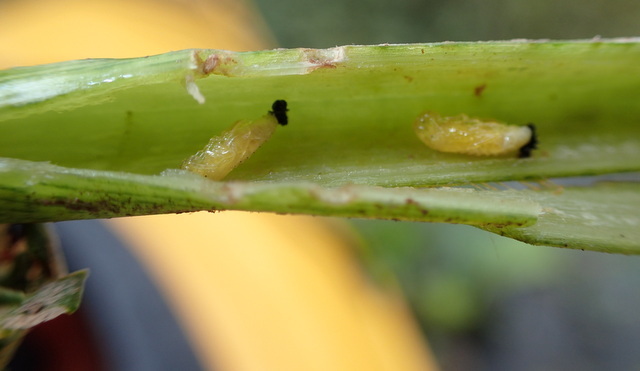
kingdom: Animalia
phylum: Arthropoda
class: Insecta
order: Coleoptera
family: Chrysomelidae
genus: Agasicles
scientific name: Agasicles hygrophila
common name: Alligatorweed flea beetle
